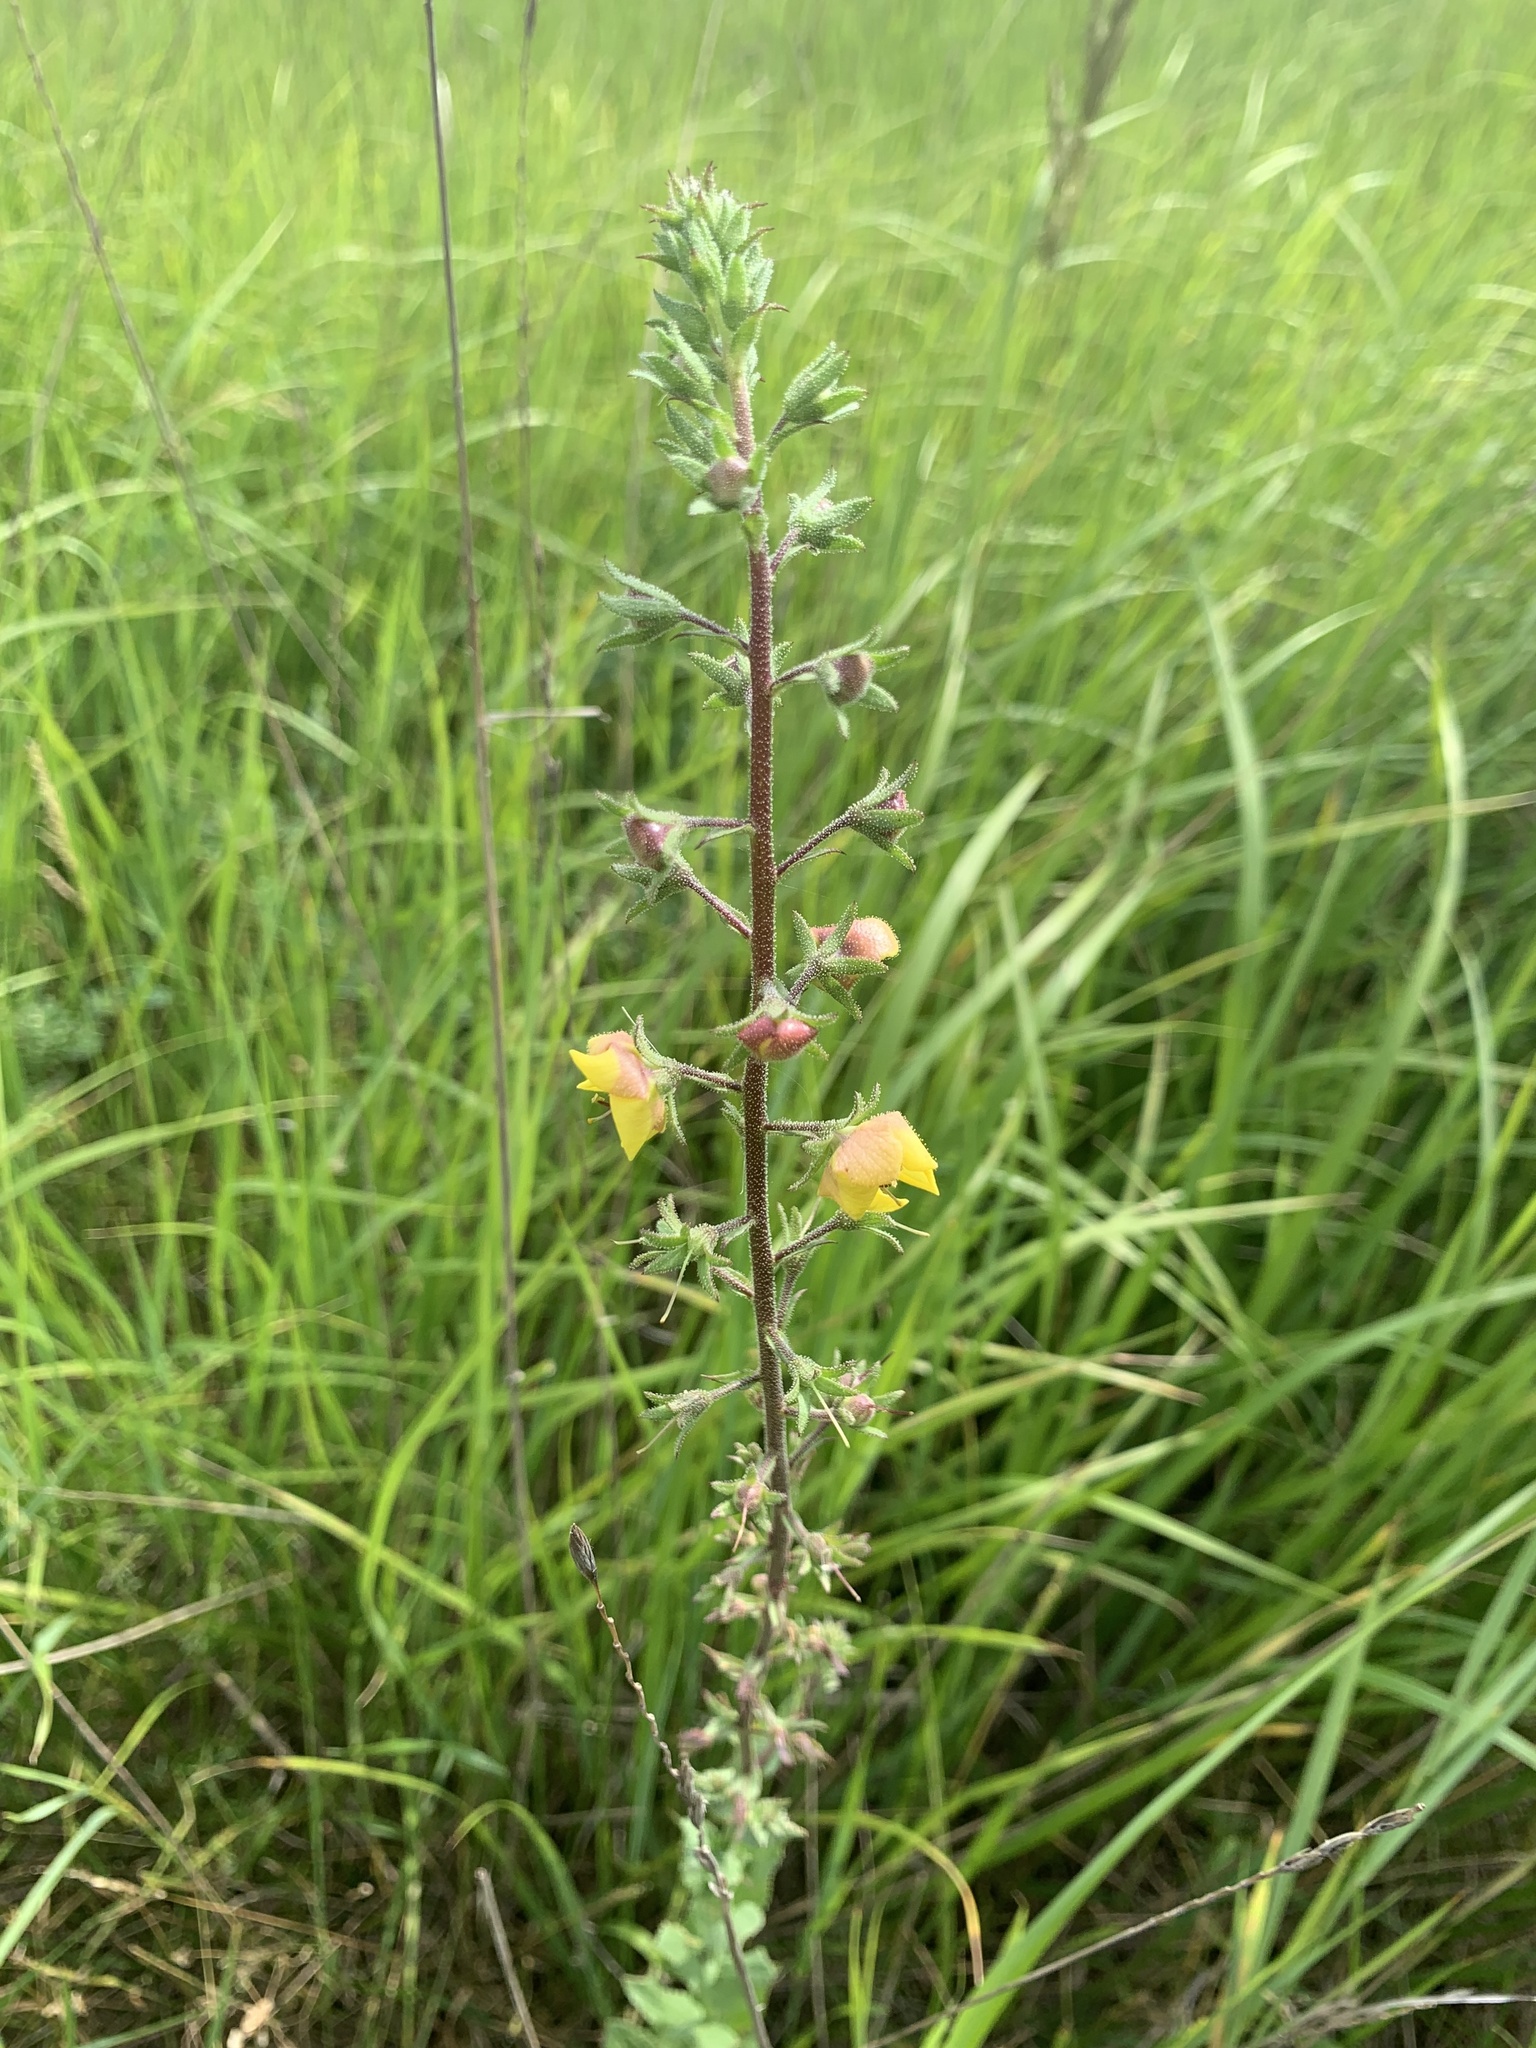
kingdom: Plantae
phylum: Tracheophyta
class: Magnoliopsida
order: Lamiales
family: Scrophulariaceae
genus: Verbascum
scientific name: Verbascum blattaria
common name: Moth mullein
